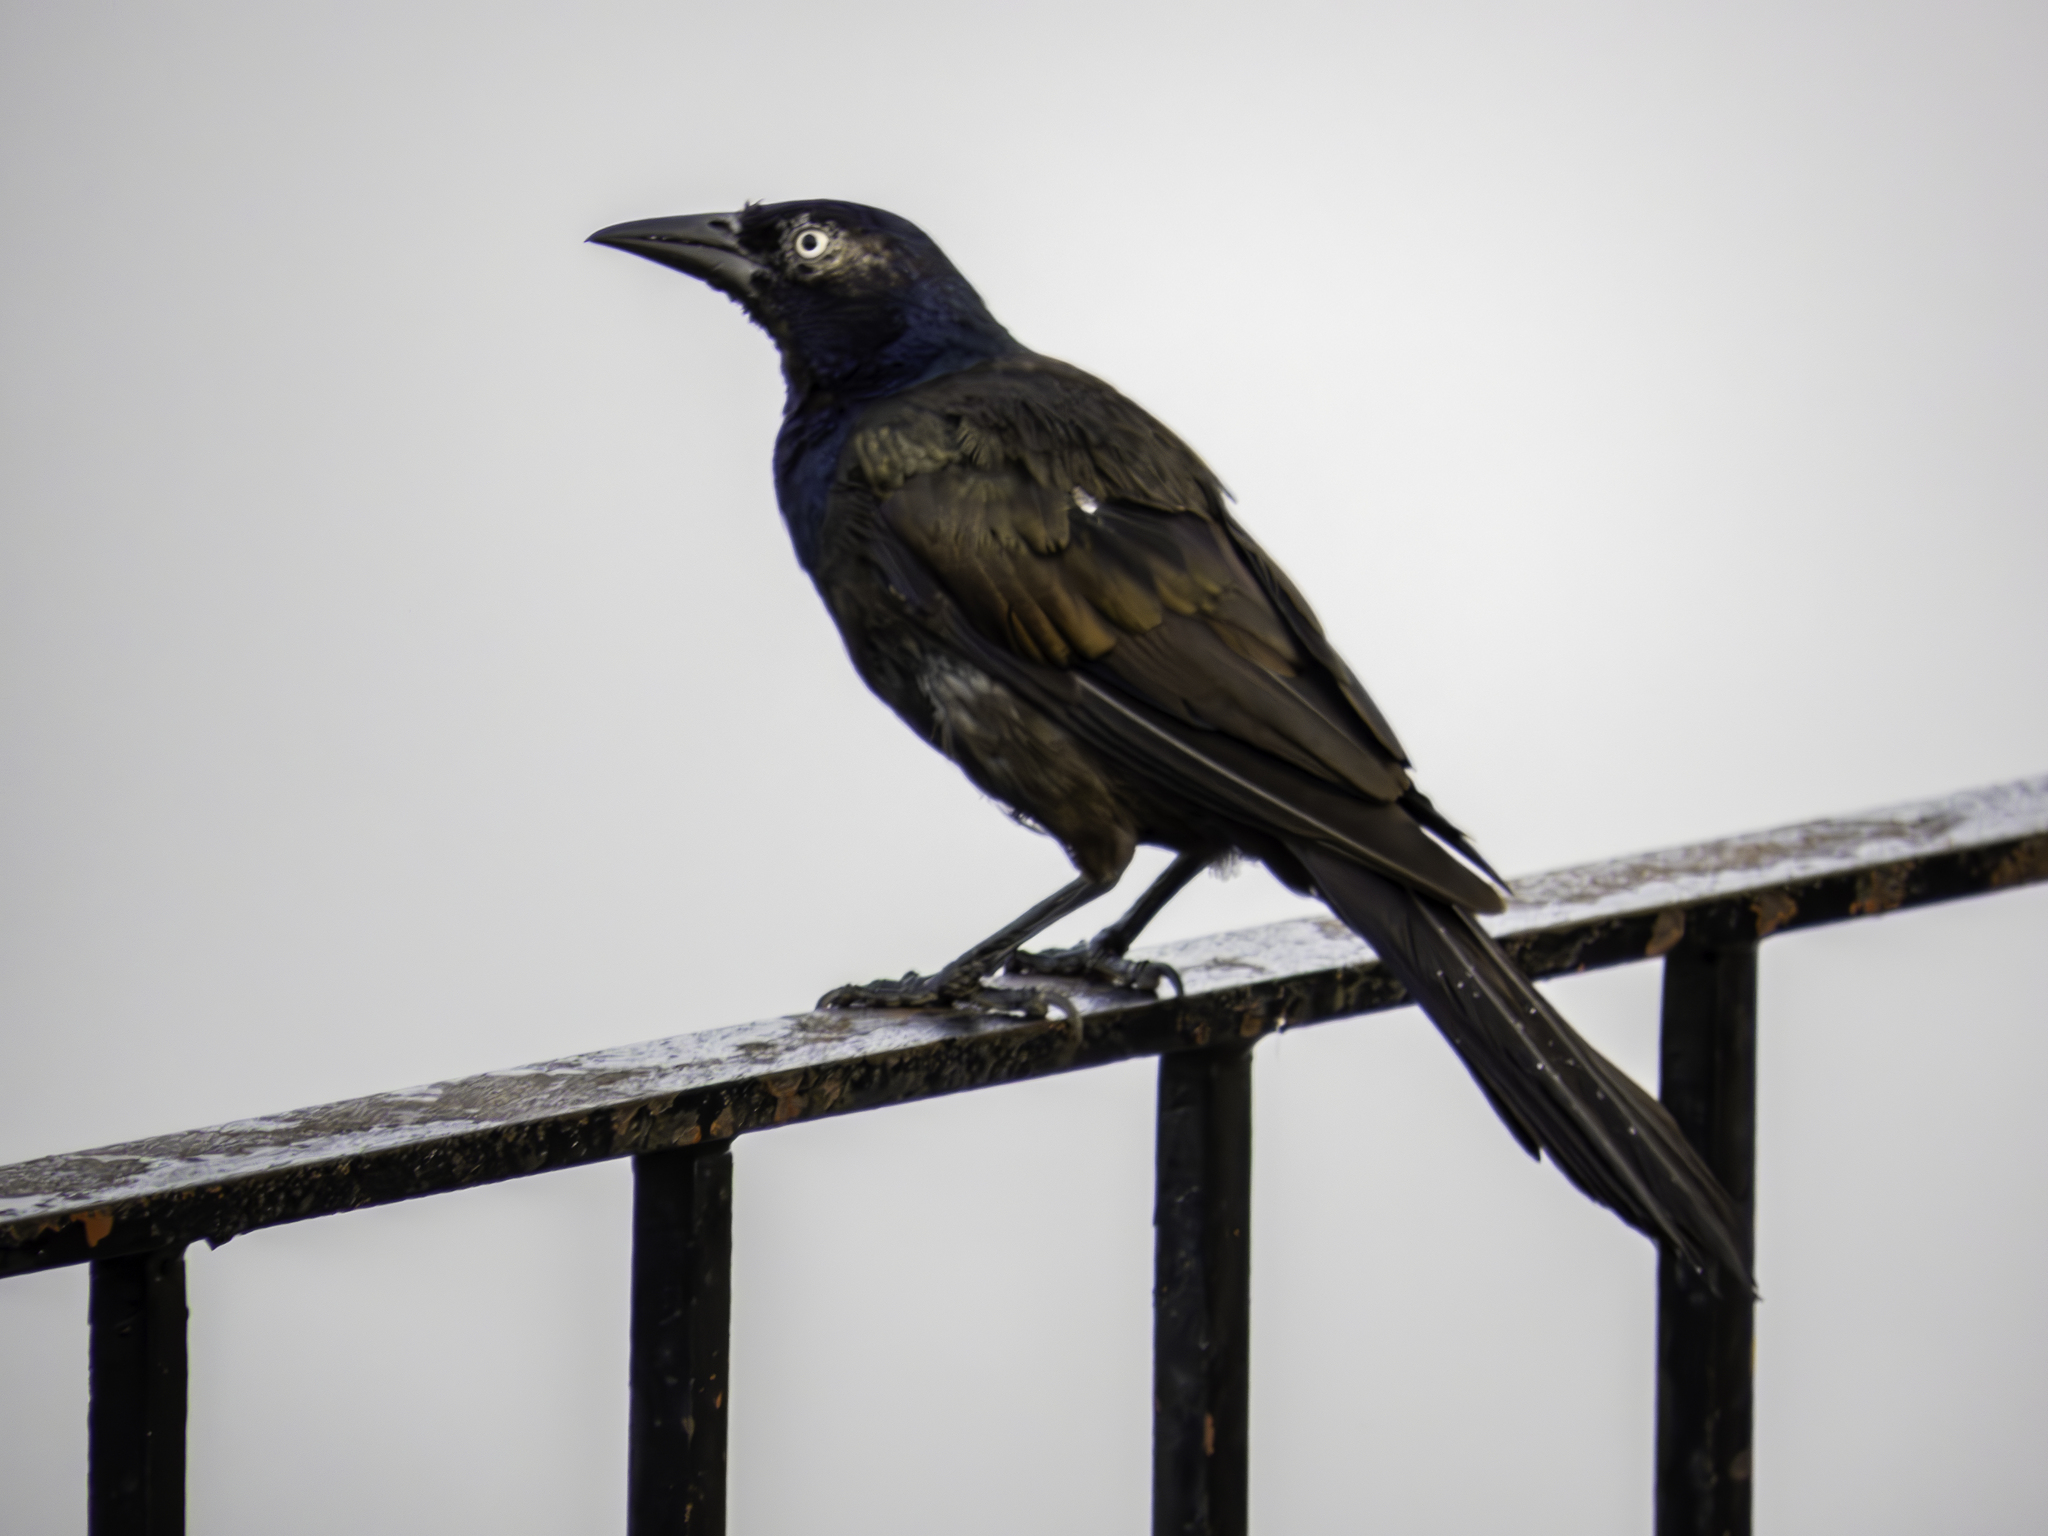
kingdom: Animalia
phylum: Chordata
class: Aves
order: Passeriformes
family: Icteridae
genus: Quiscalus
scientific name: Quiscalus quiscula
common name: Common grackle
